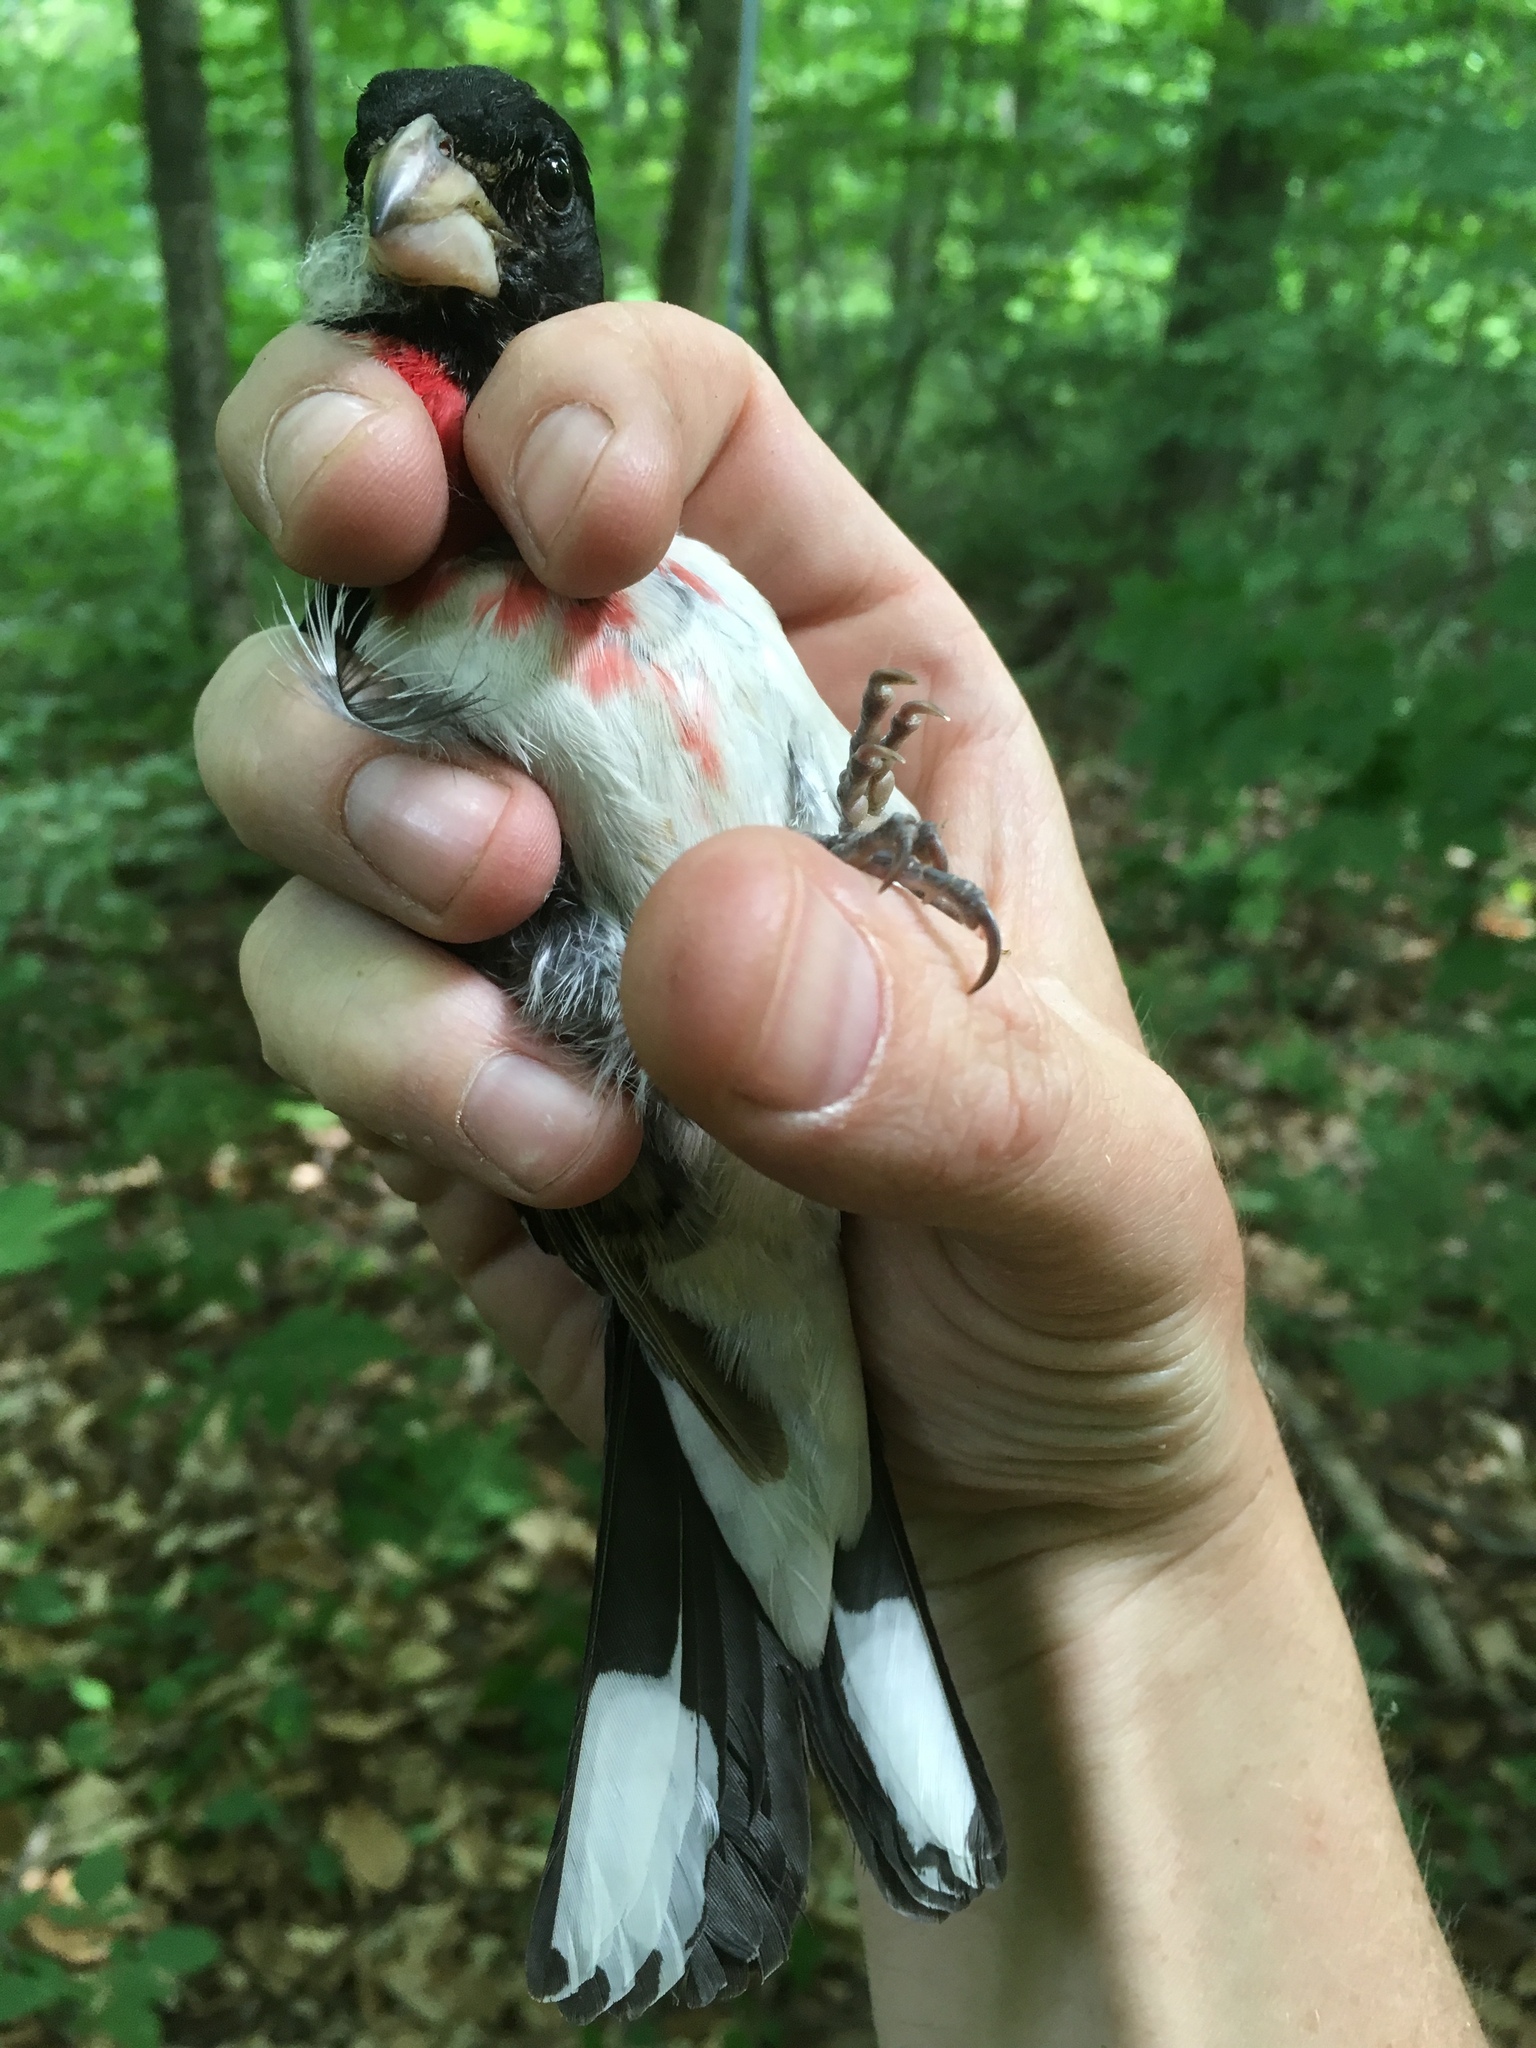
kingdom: Animalia
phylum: Chordata
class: Aves
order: Passeriformes
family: Cardinalidae
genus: Pheucticus
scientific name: Pheucticus ludovicianus
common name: Rose-breasted grosbeak
